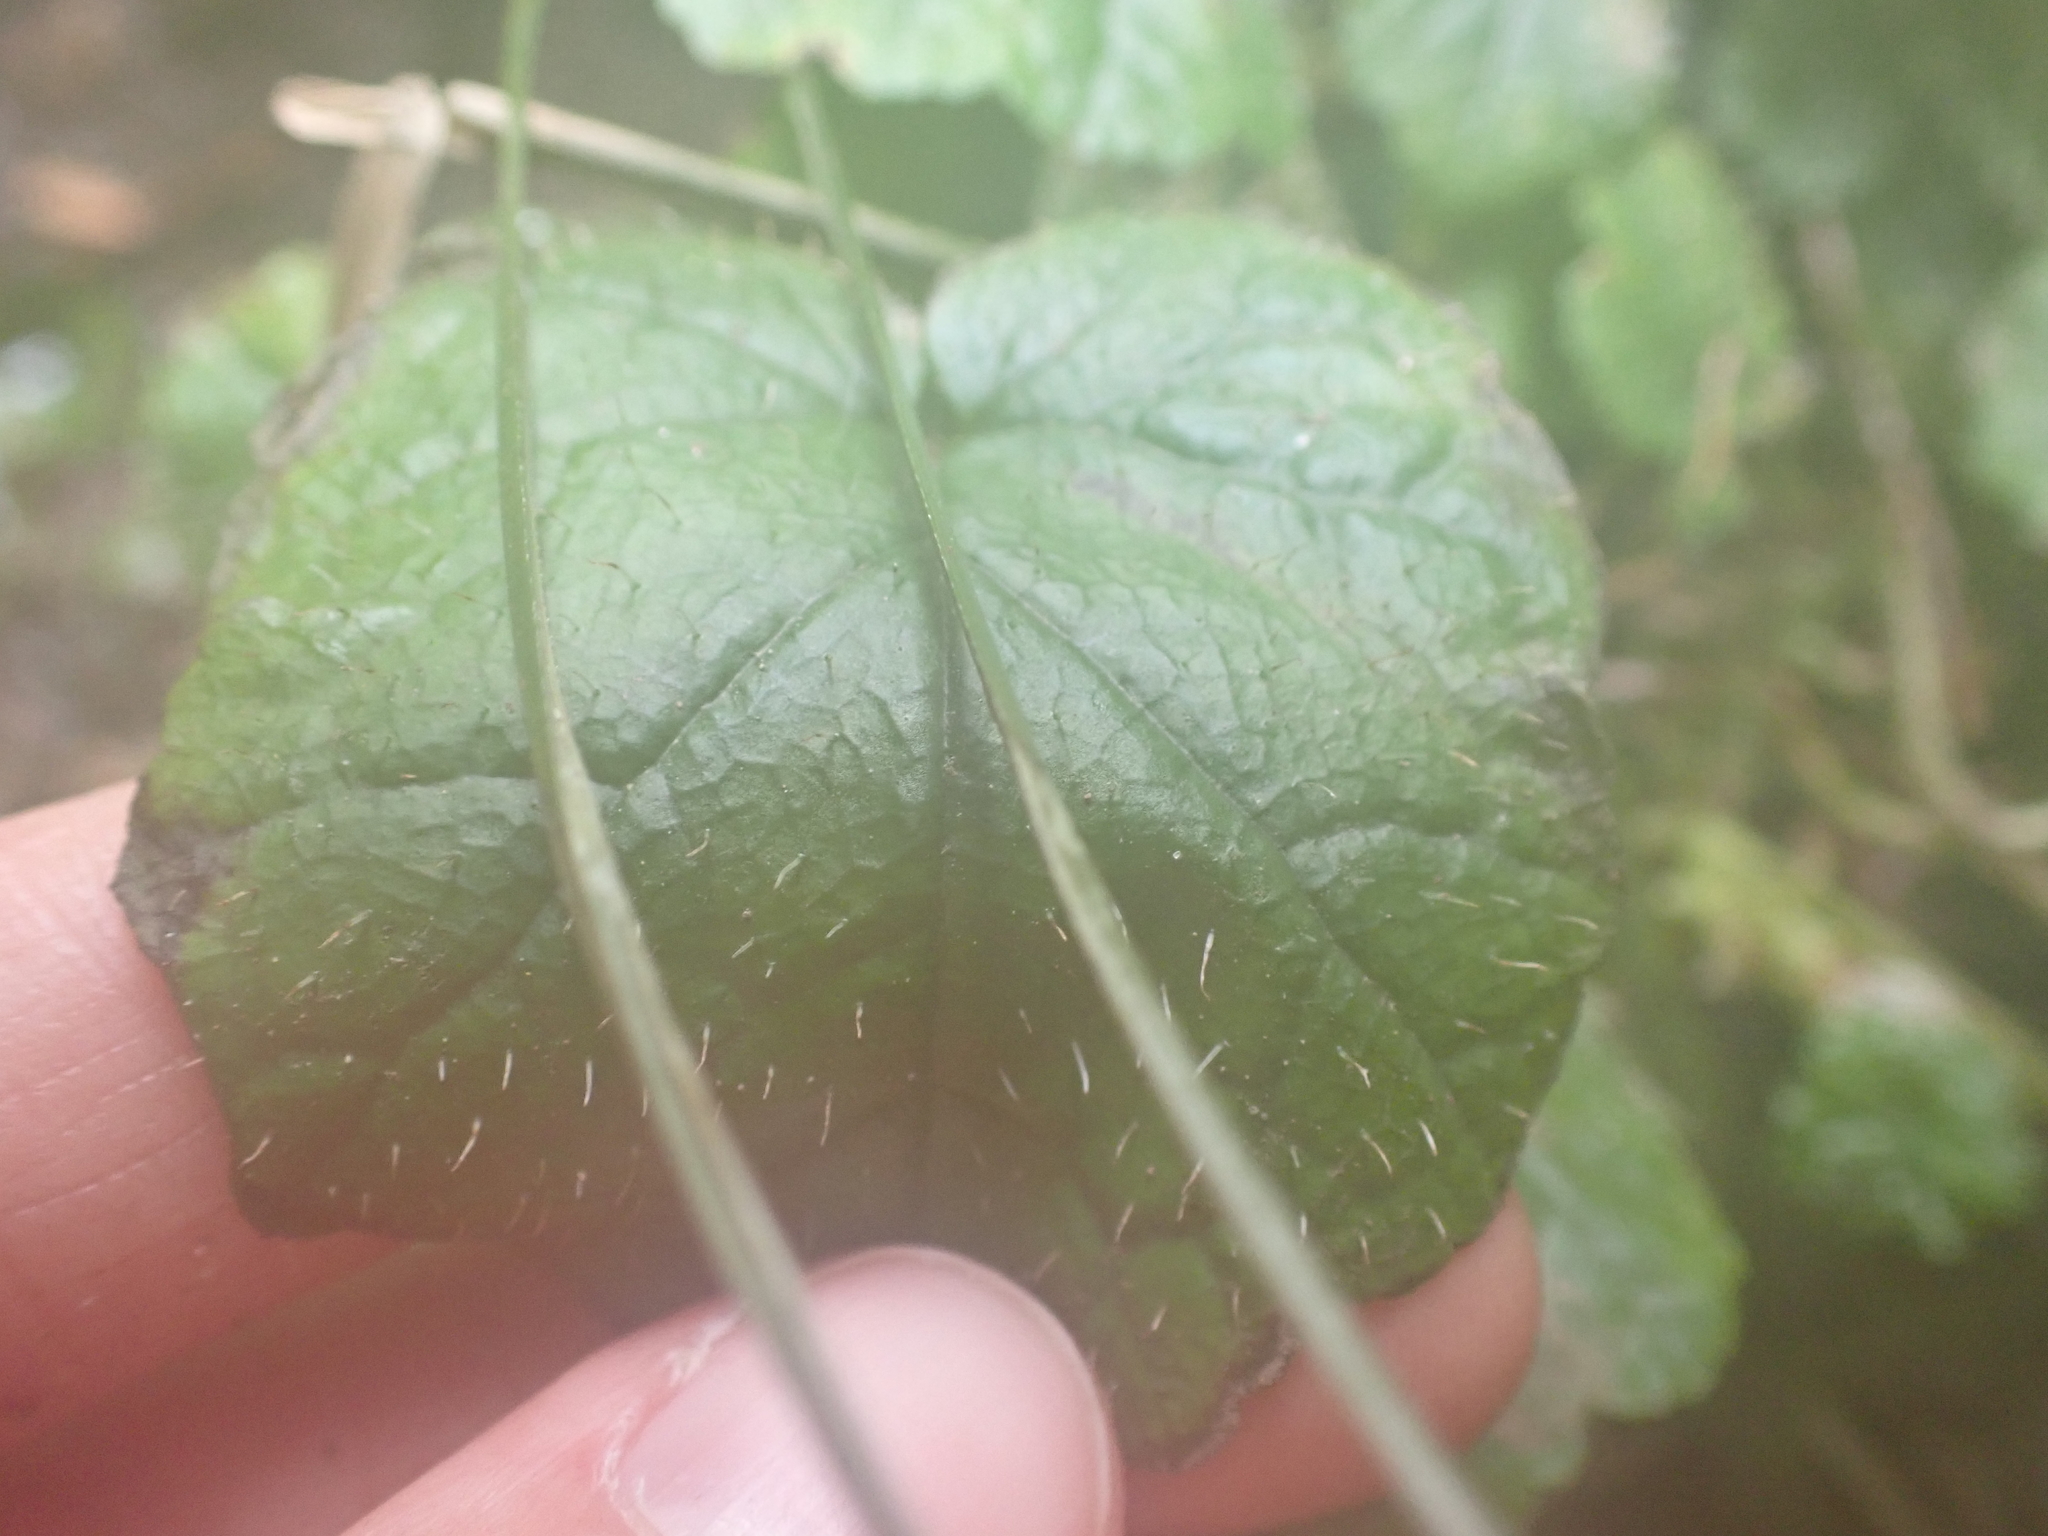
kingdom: Plantae
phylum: Tracheophyta
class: Magnoliopsida
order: Saxifragales
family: Saxifragaceae
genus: Brewerimitella
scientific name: Brewerimitella ovalis
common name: Coastal bishop's-cap
